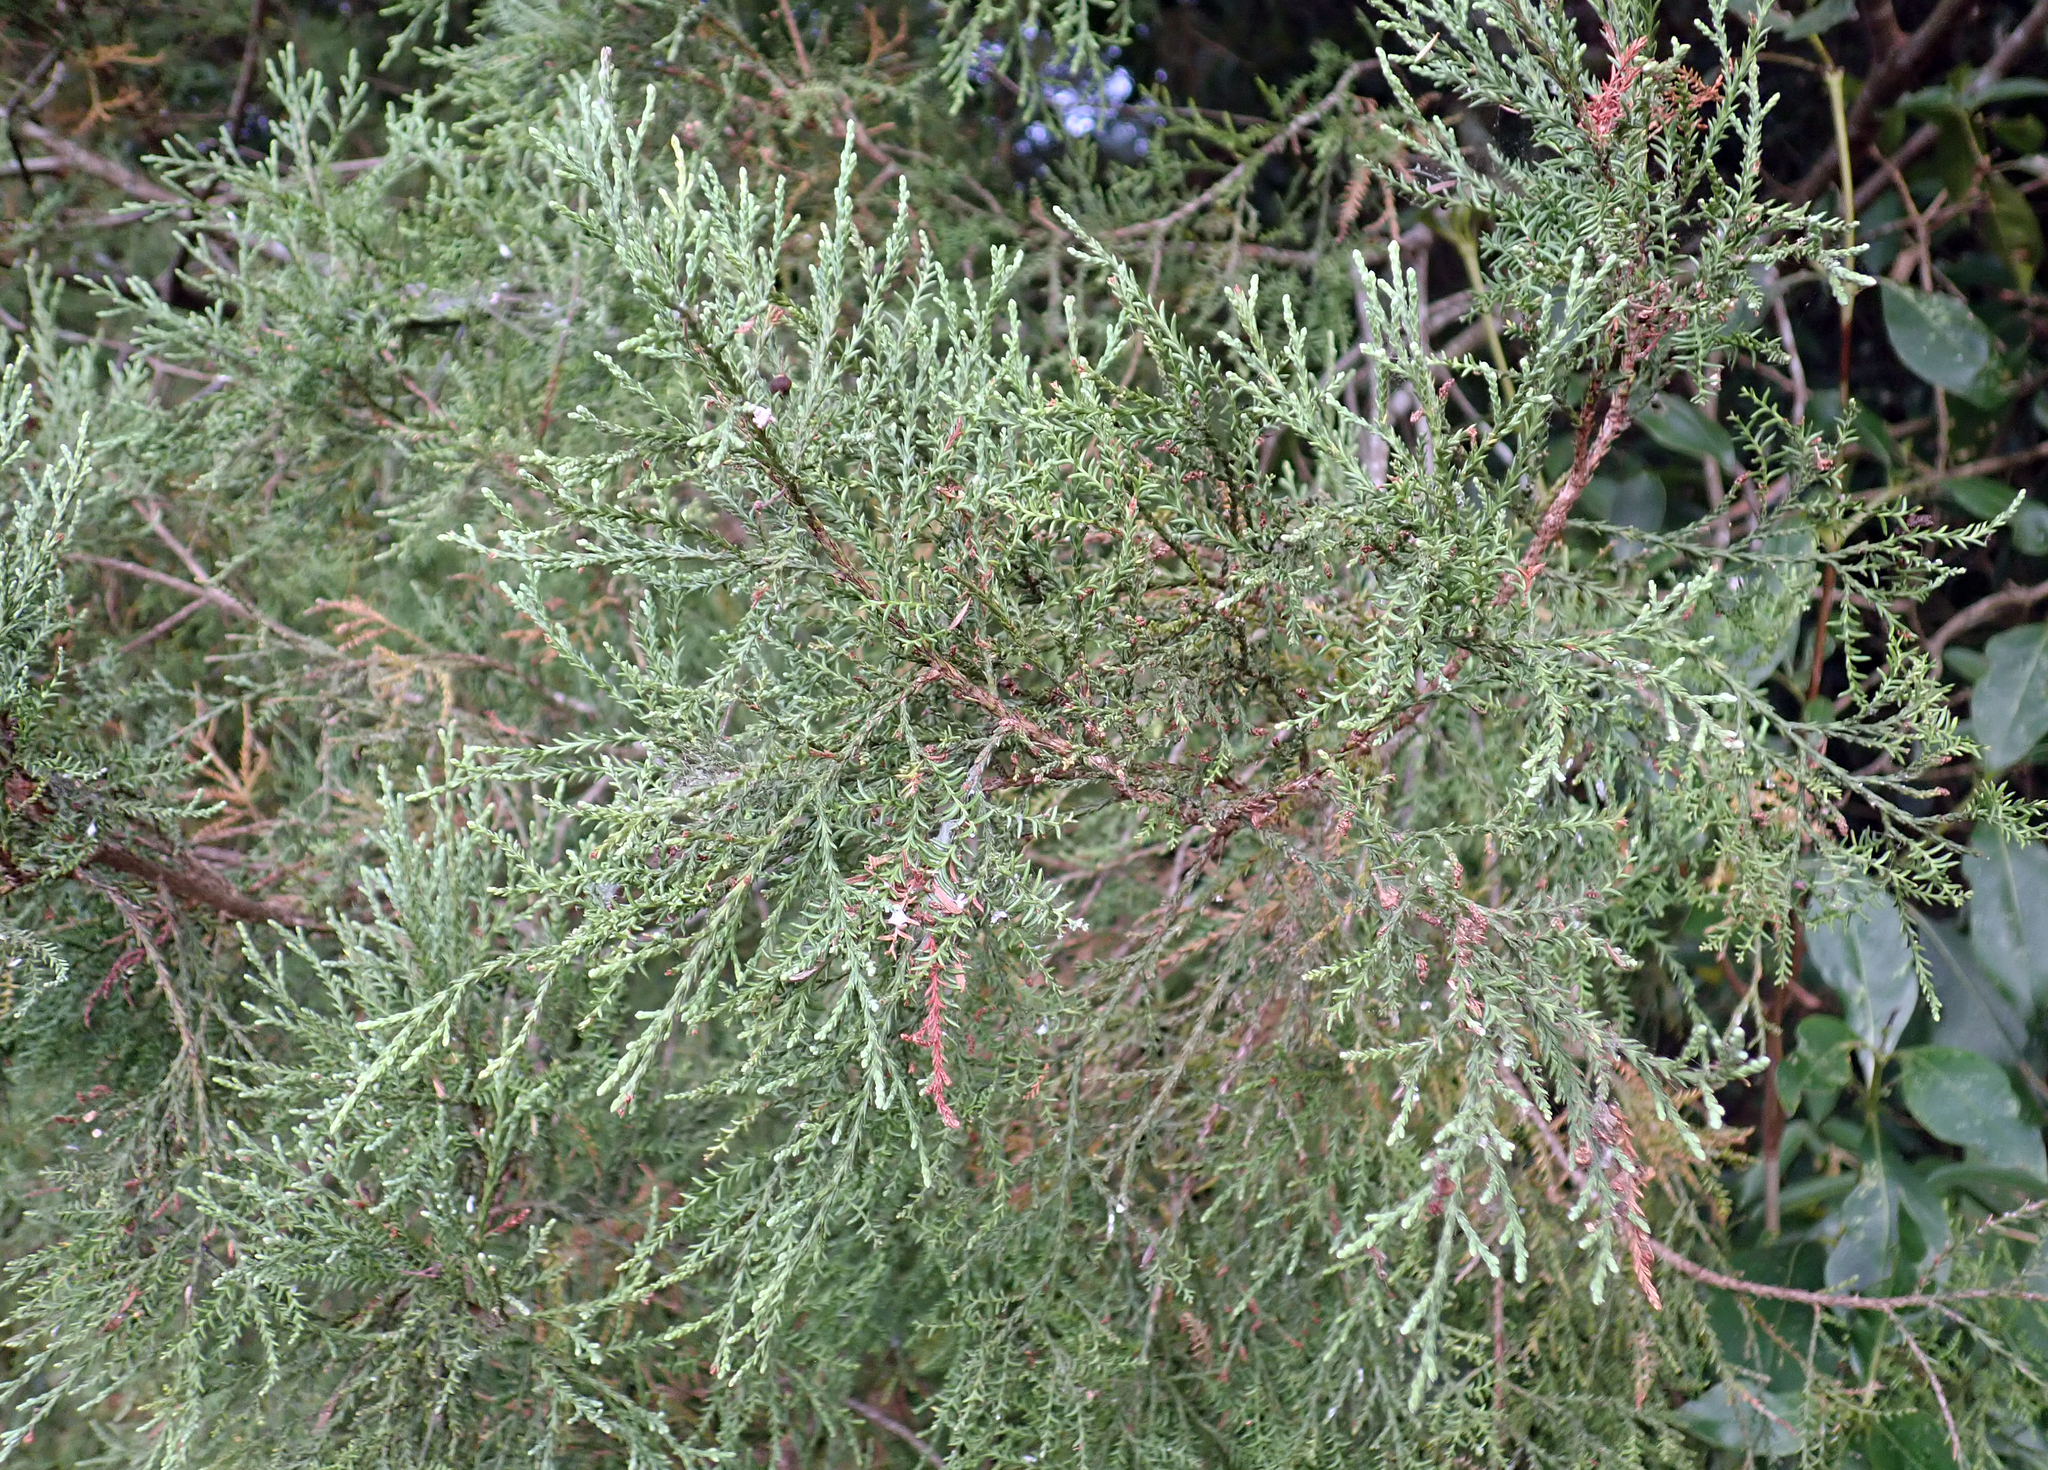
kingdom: Plantae
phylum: Tracheophyta
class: Pinopsida
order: Pinales
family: Podocarpaceae
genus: Dacrycarpus
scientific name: Dacrycarpus dacrydioides
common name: White pine
